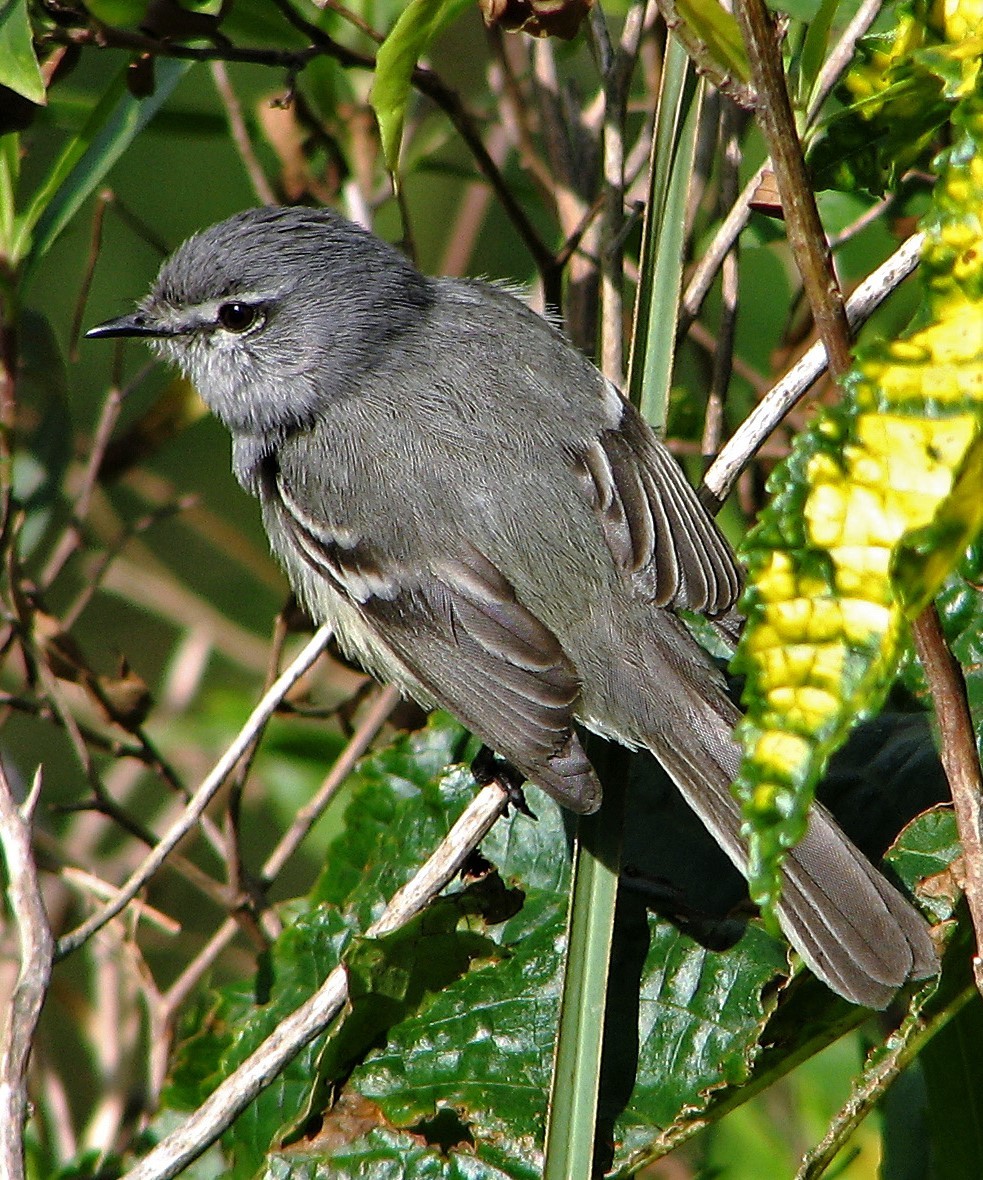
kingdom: Animalia
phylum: Chordata
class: Aves
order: Passeriformes
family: Tyrannidae
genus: Serpophaga
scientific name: Serpophaga griseicapilla
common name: Straneck's tyrannulet
